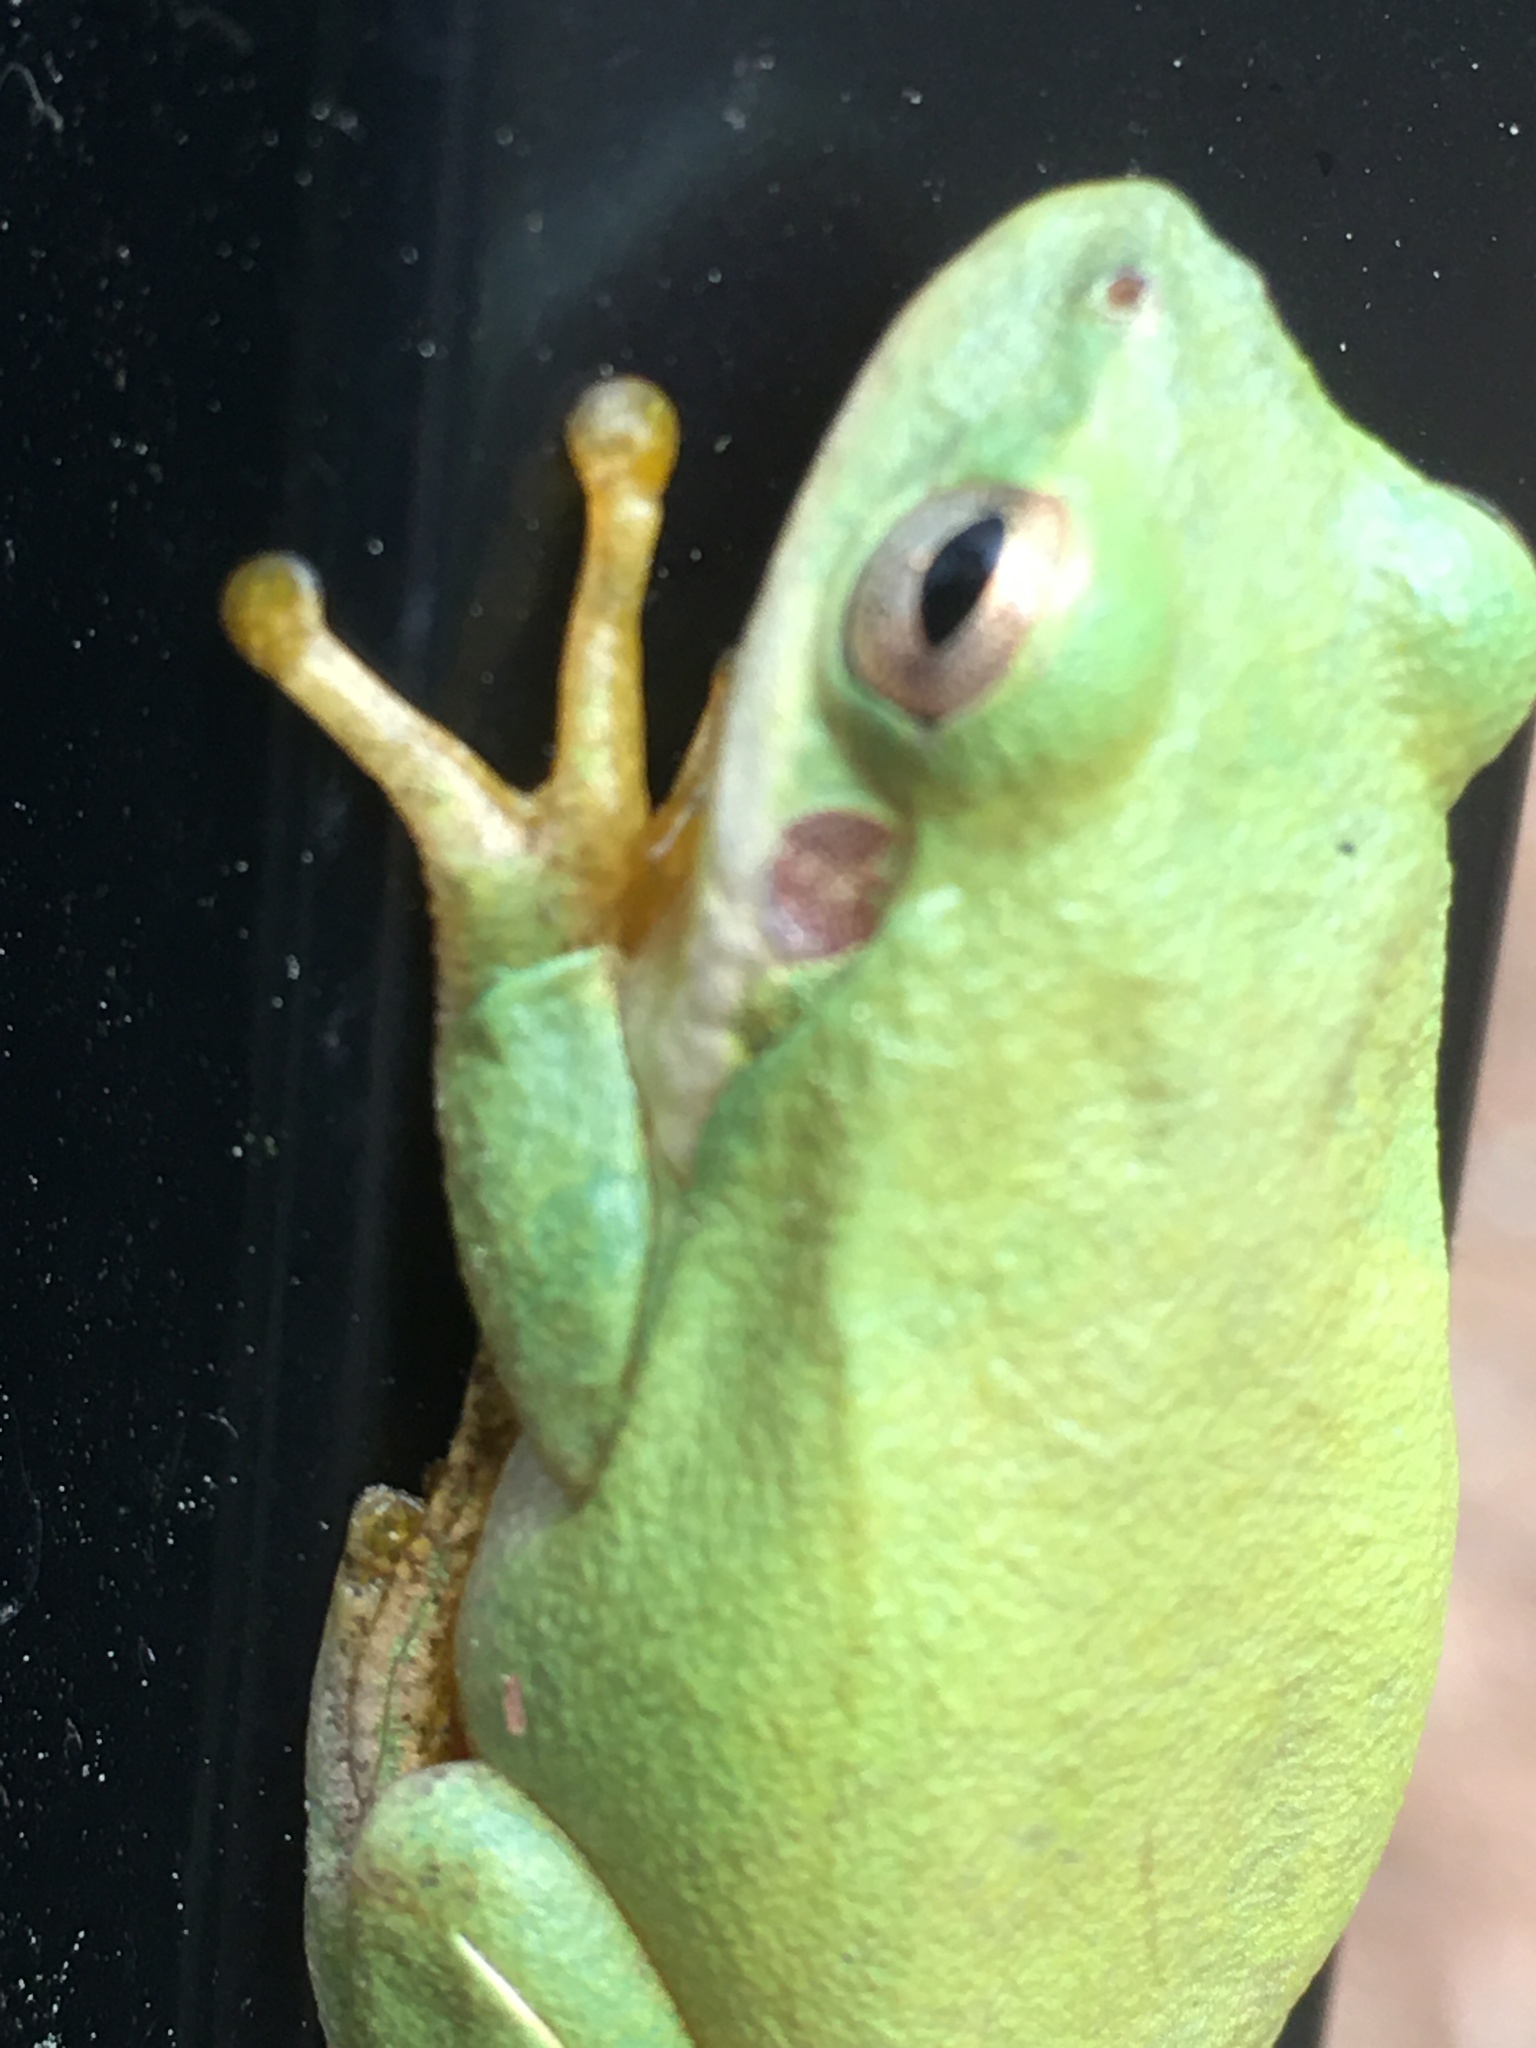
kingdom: Animalia
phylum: Chordata
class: Amphibia
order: Anura
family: Hylidae
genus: Dryophytes
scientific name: Dryophytes cinereus
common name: Green treefrog
